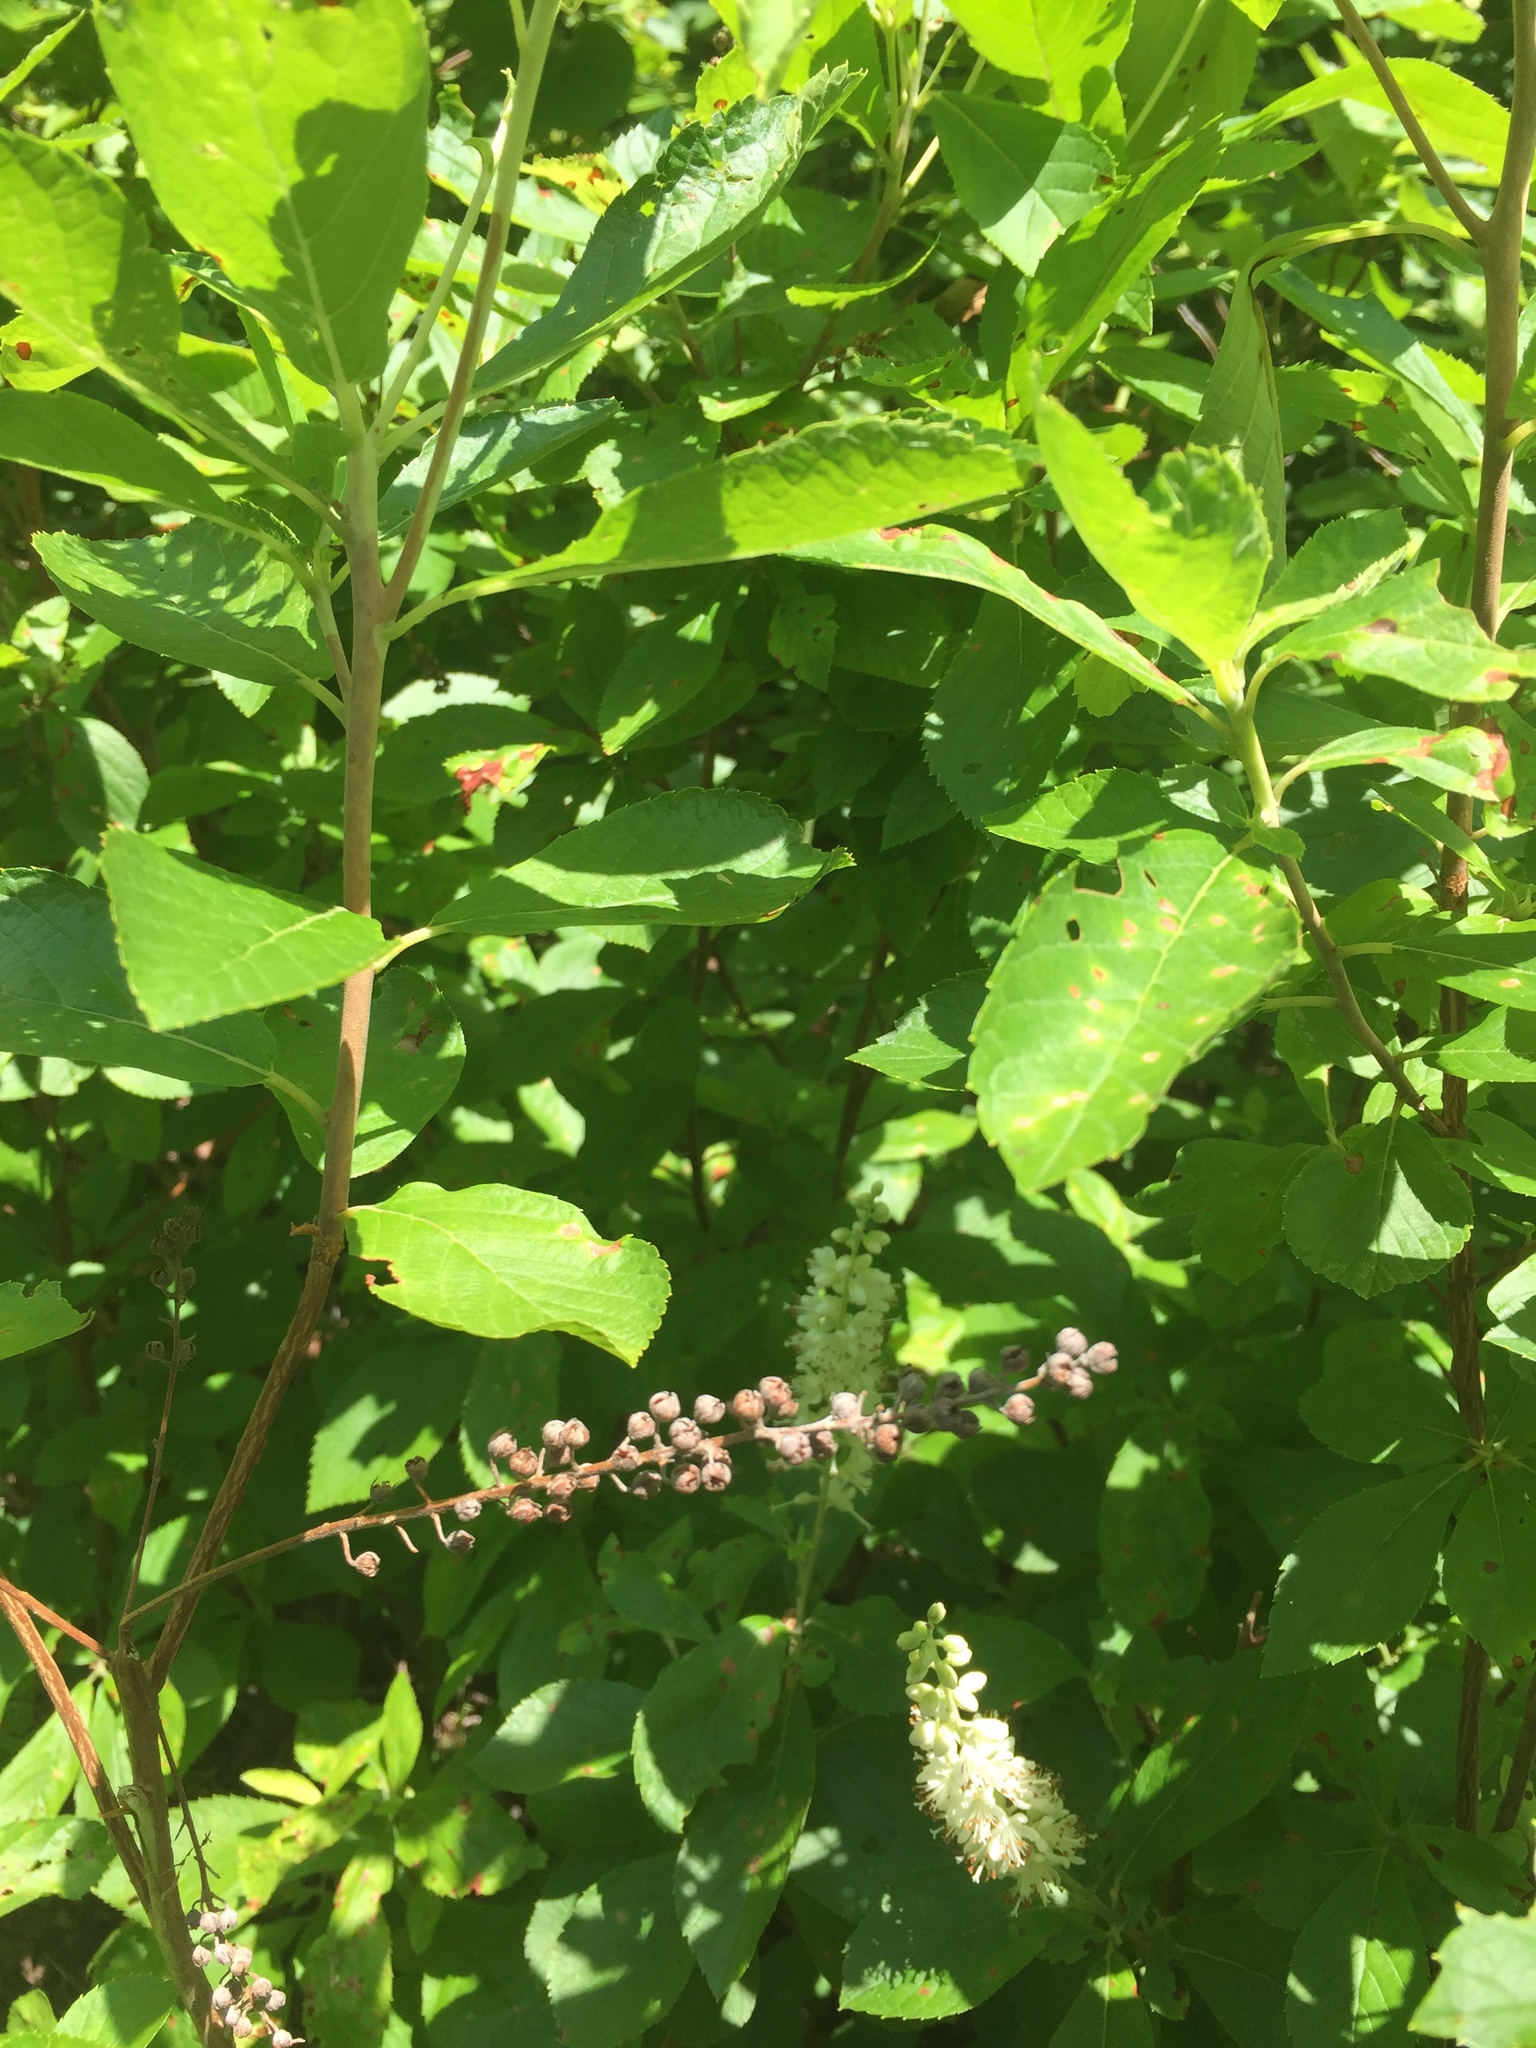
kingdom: Plantae
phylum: Tracheophyta
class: Magnoliopsida
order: Ericales
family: Clethraceae
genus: Clethra
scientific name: Clethra alnifolia
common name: Sweet pepperbush
